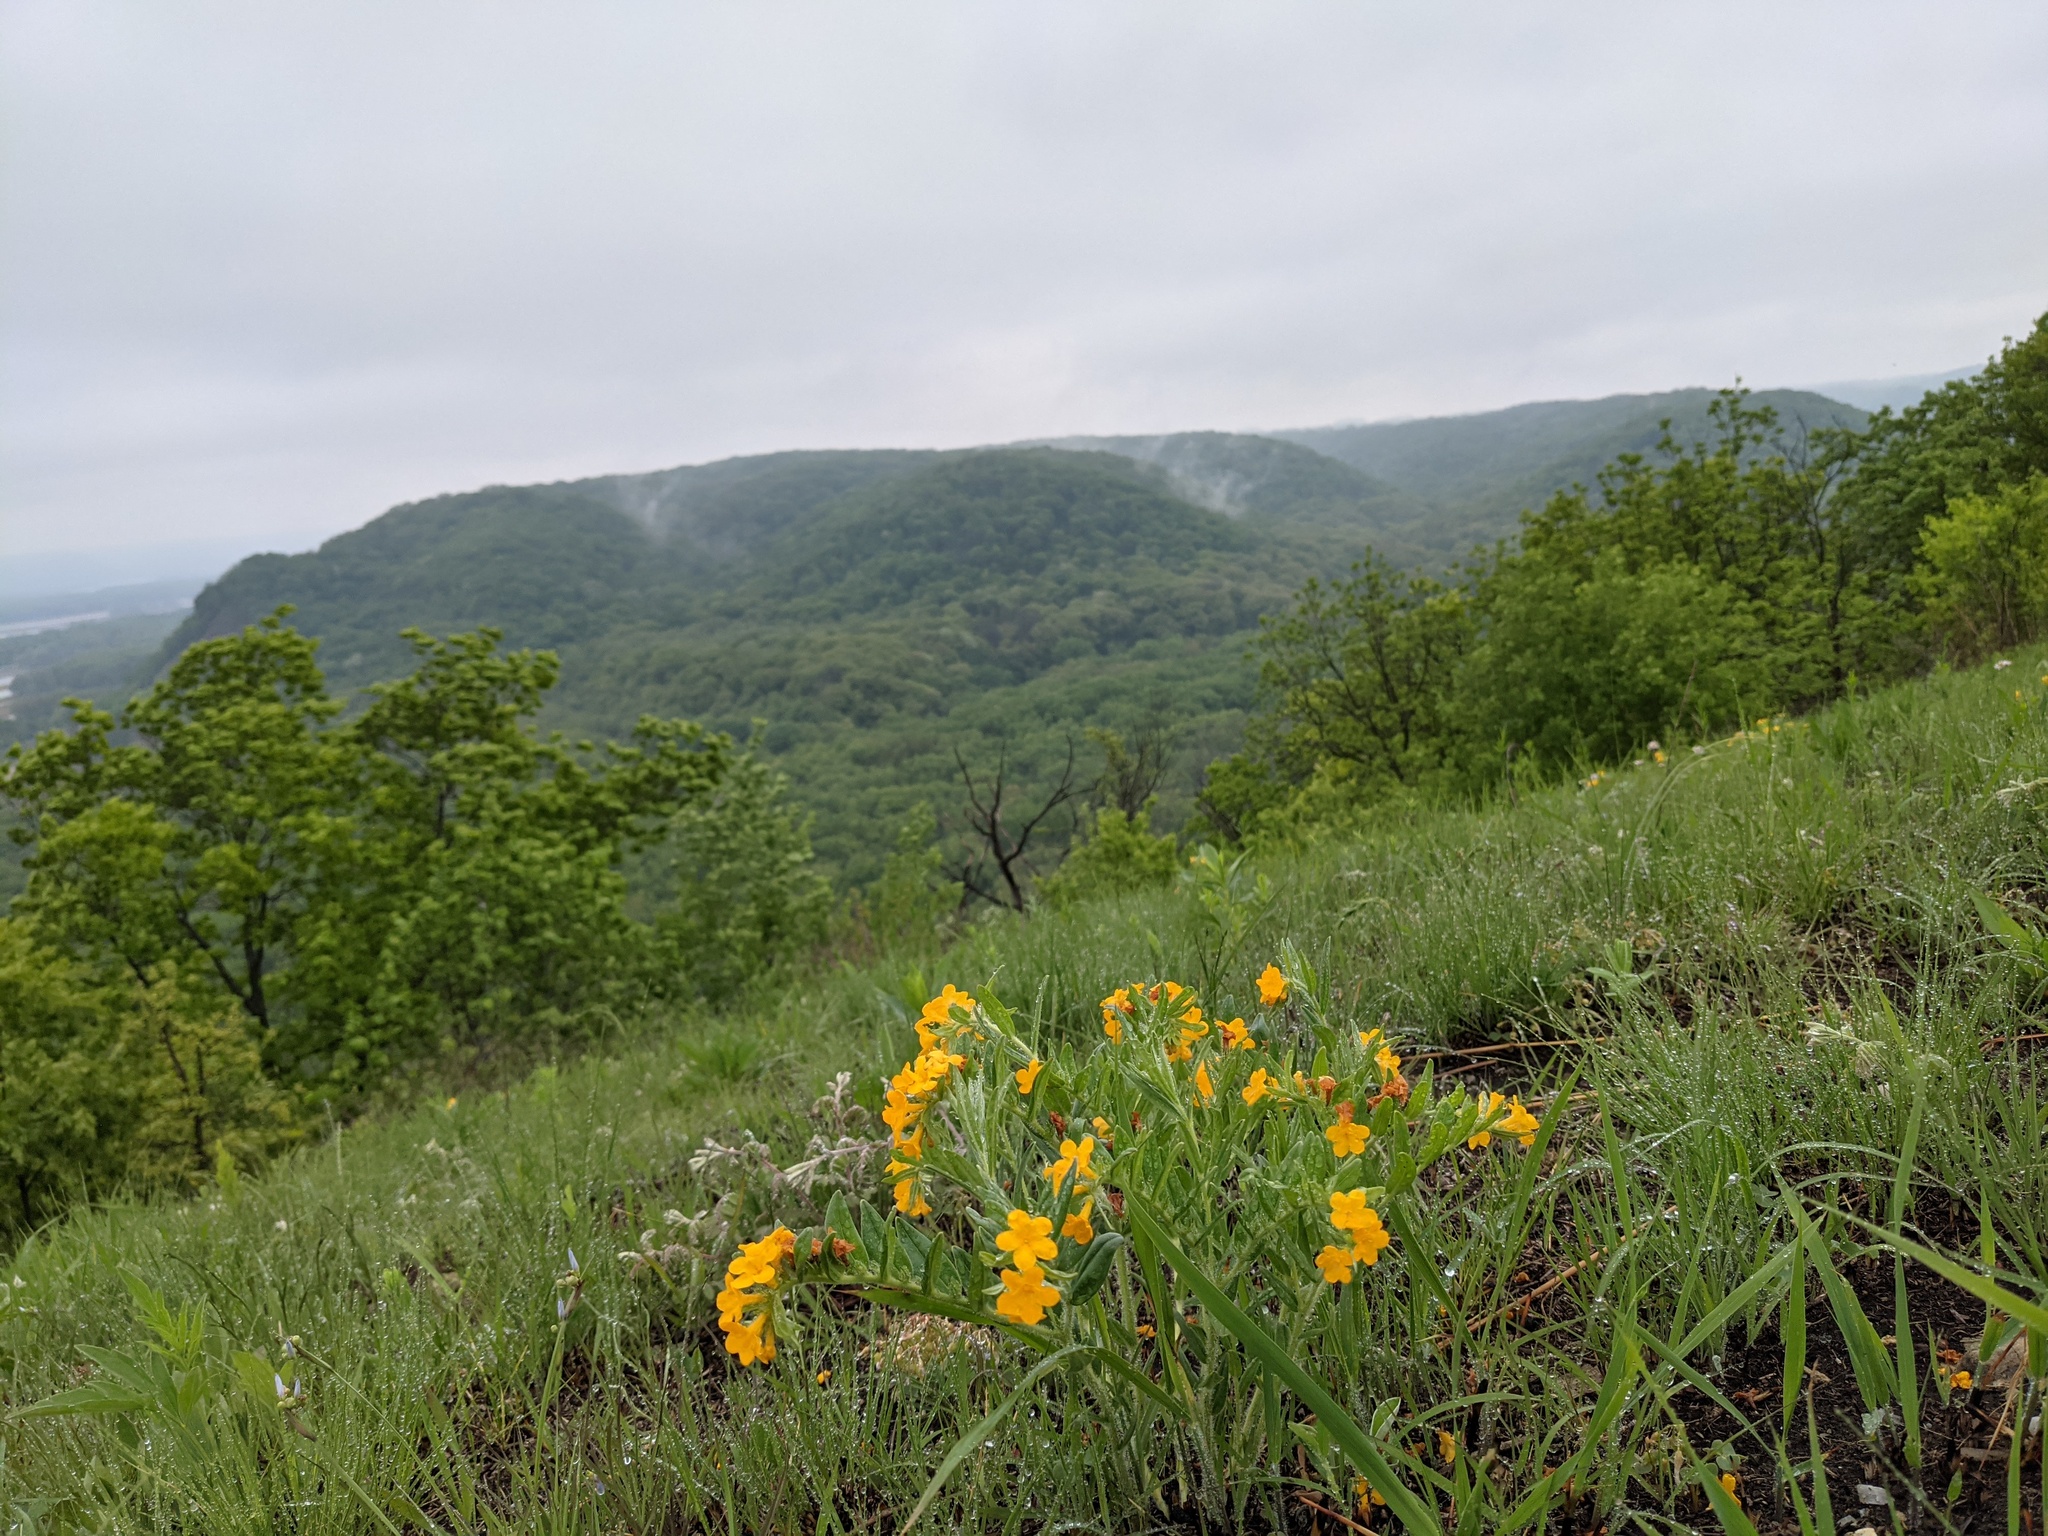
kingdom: Plantae
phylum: Tracheophyta
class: Magnoliopsida
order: Boraginales
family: Boraginaceae
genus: Lithospermum
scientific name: Lithospermum canescens
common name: Hoary puccoon
